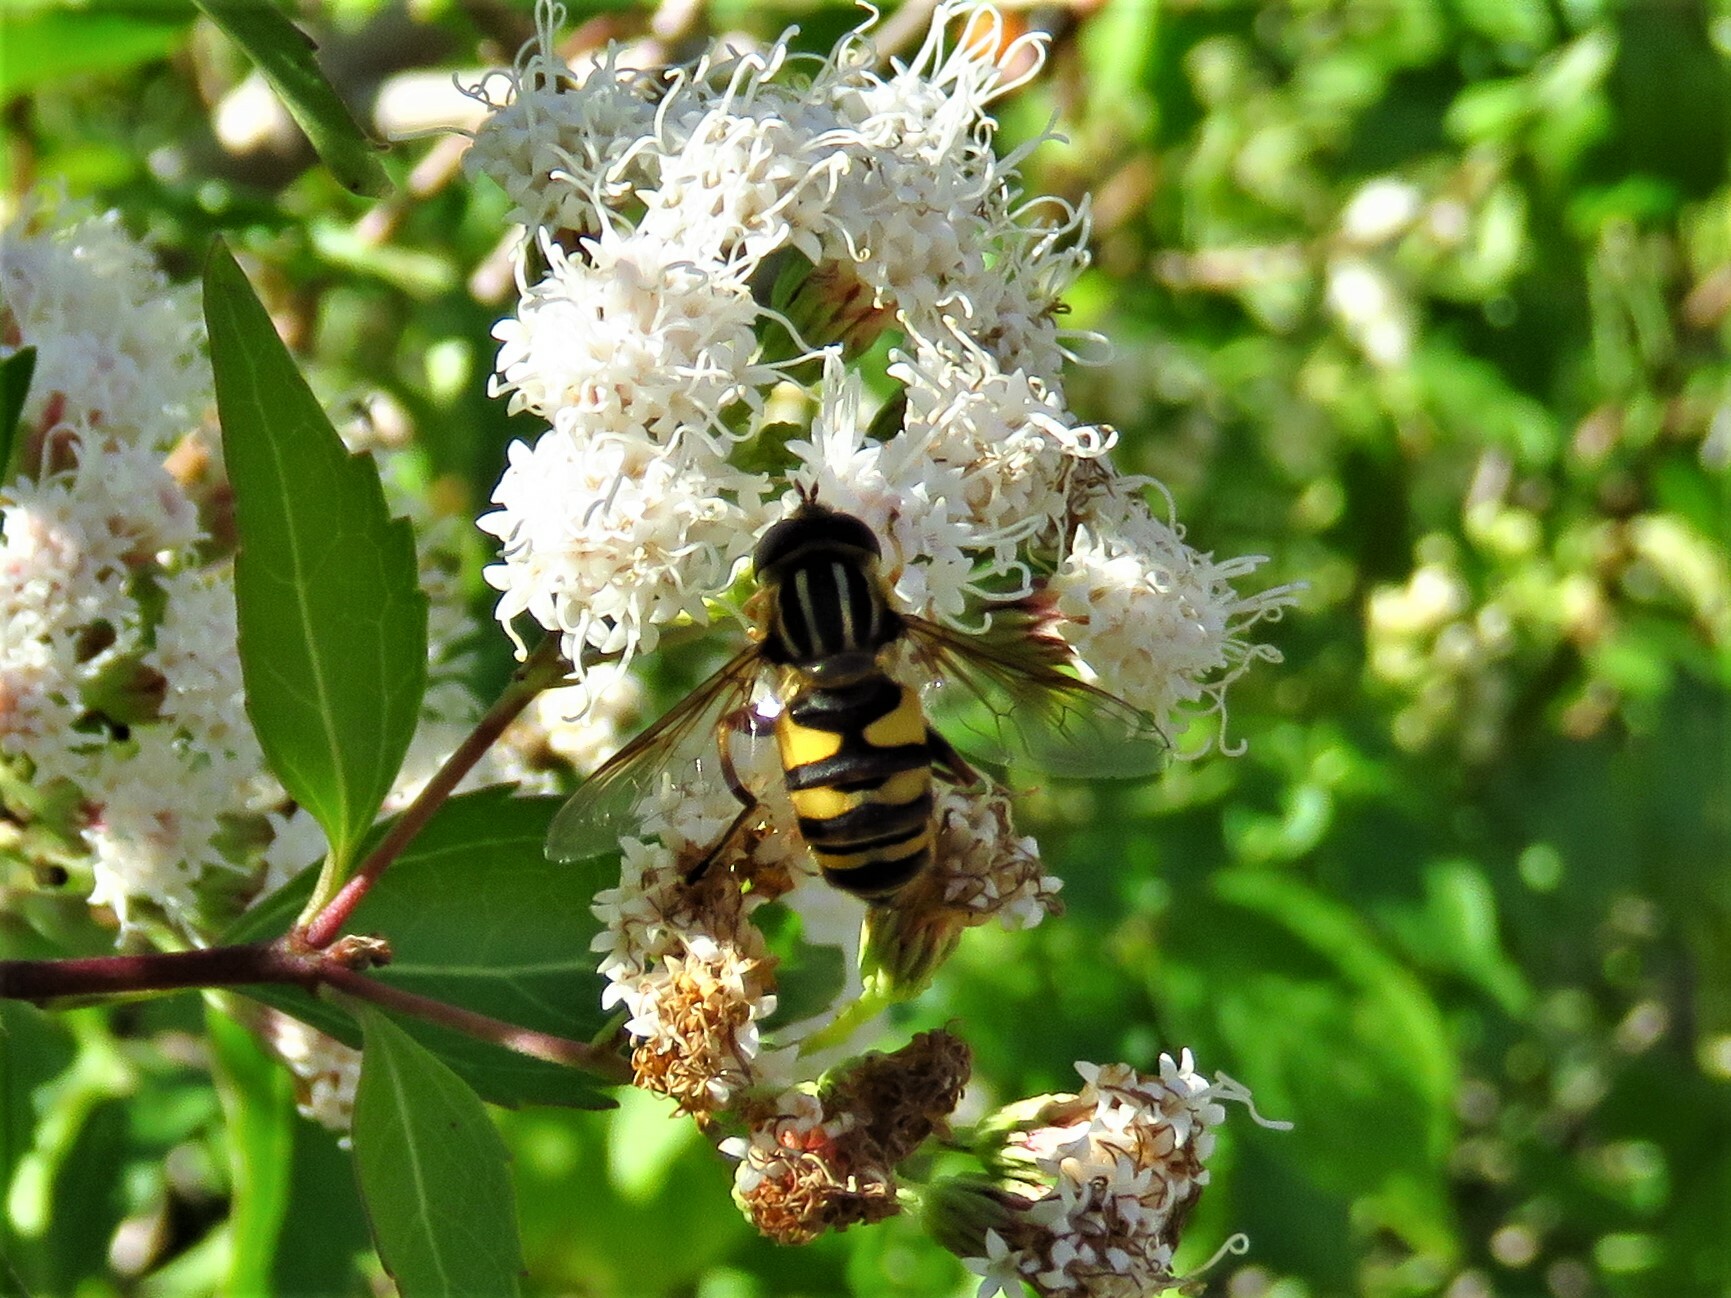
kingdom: Animalia
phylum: Arthropoda
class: Insecta
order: Diptera
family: Syrphidae
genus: Helophilus
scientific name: Helophilus fasciatus
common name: Narrow-headed marsh fly
